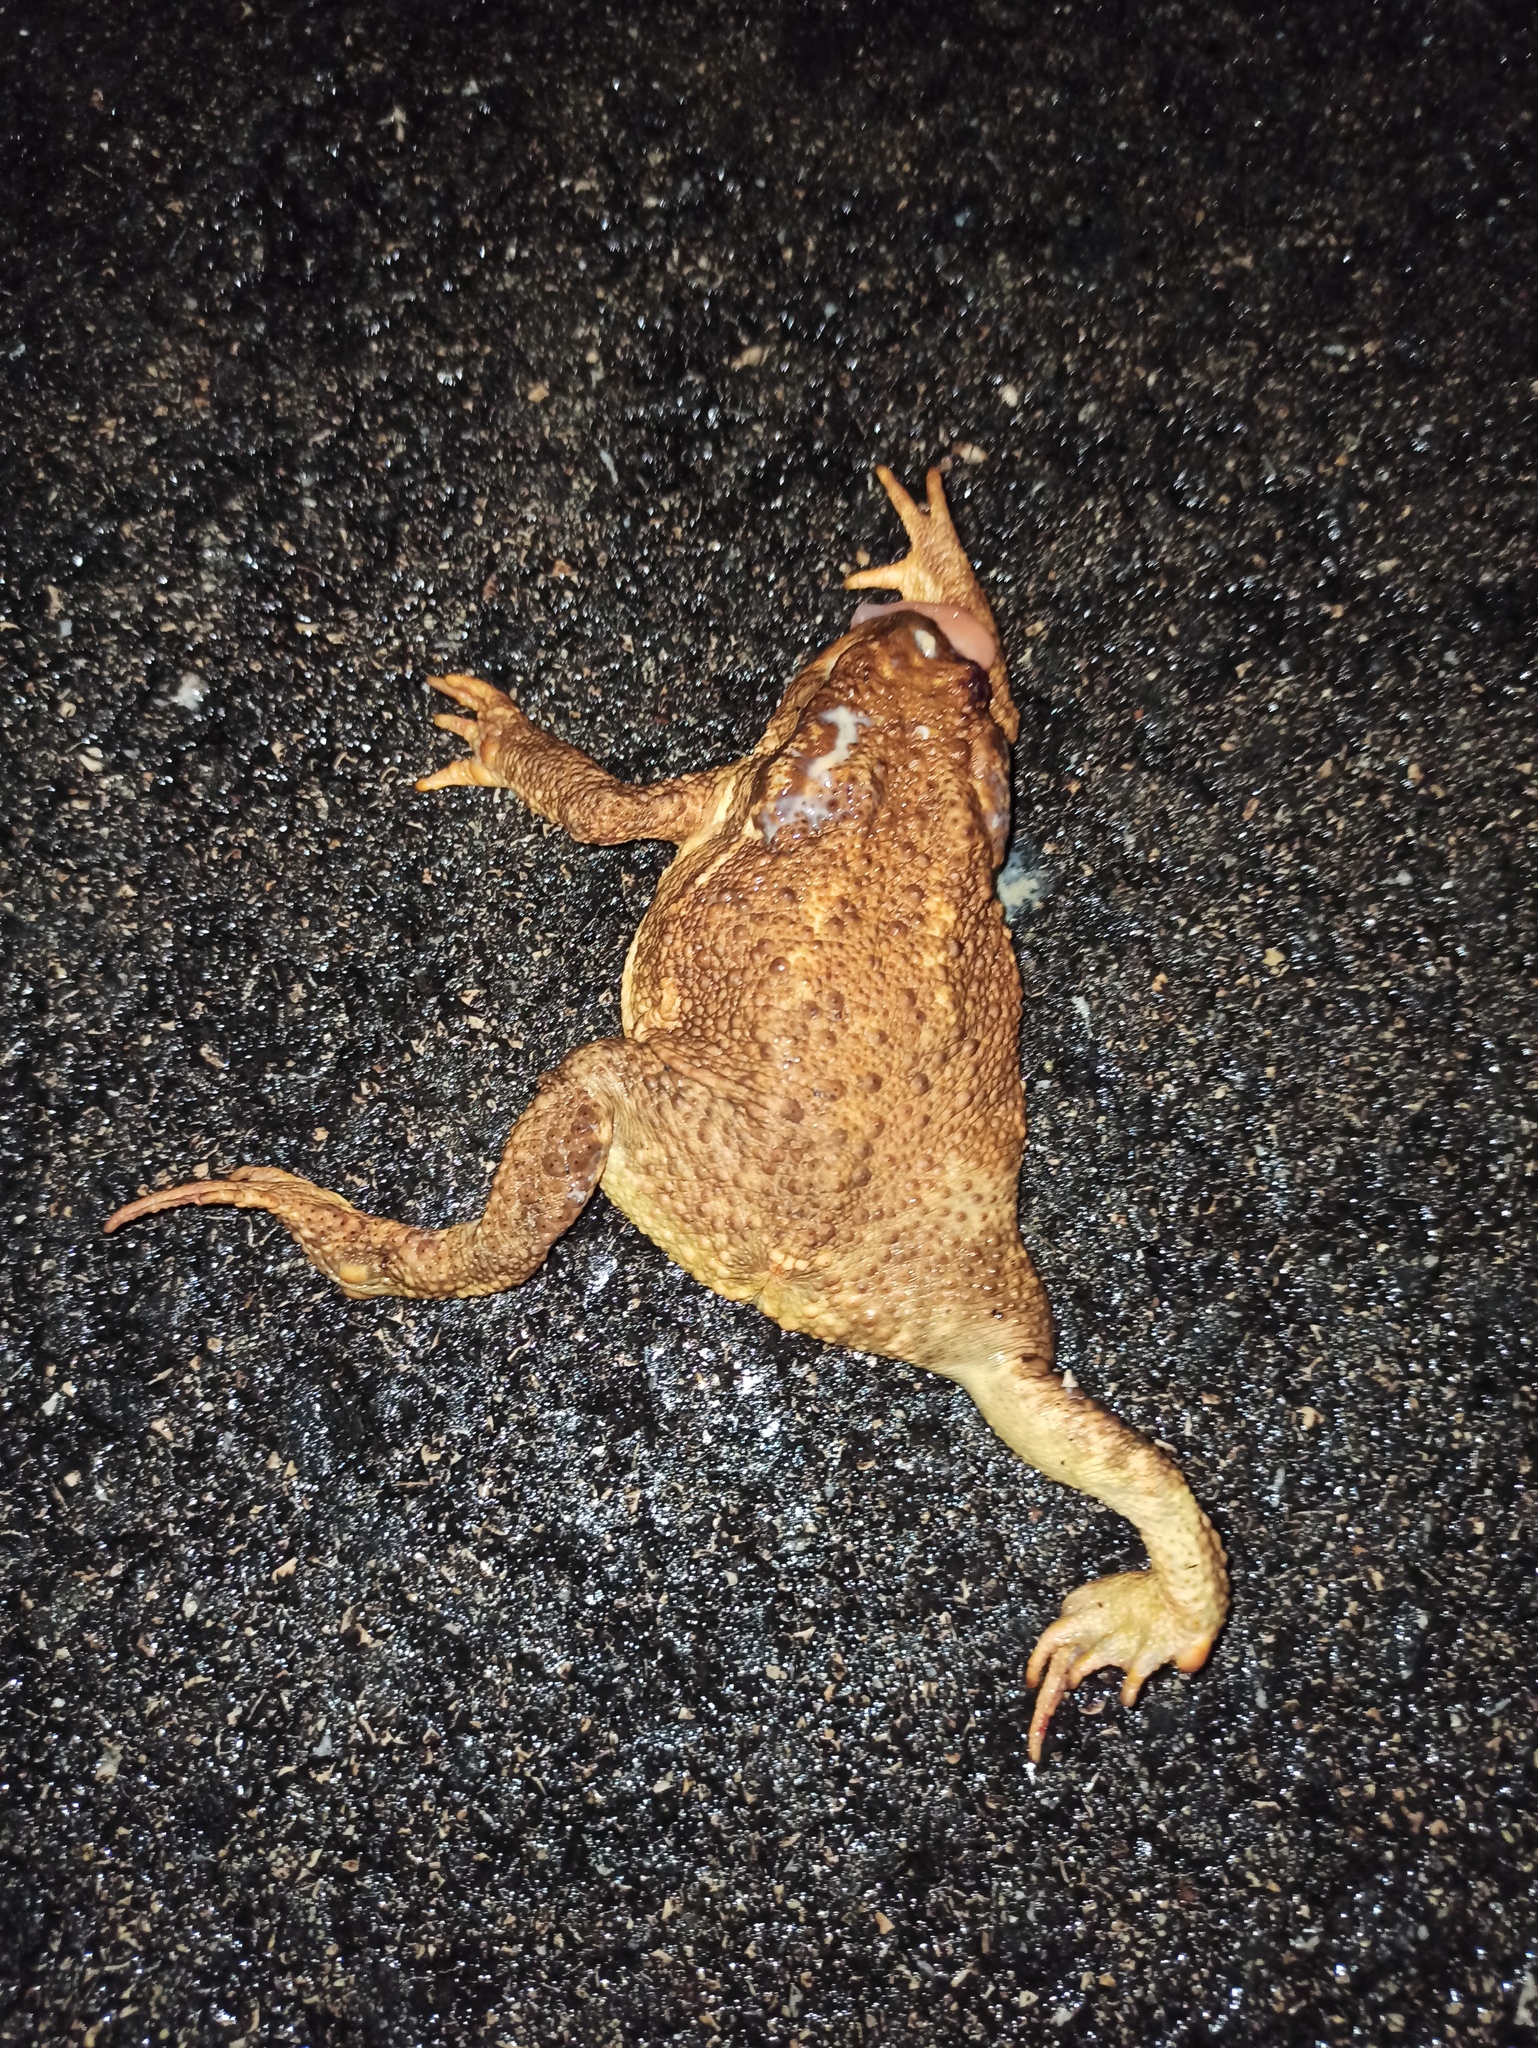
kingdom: Animalia
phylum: Chordata
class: Amphibia
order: Anura
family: Bufonidae
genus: Bufo
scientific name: Bufo spinosus
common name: Western common toad
